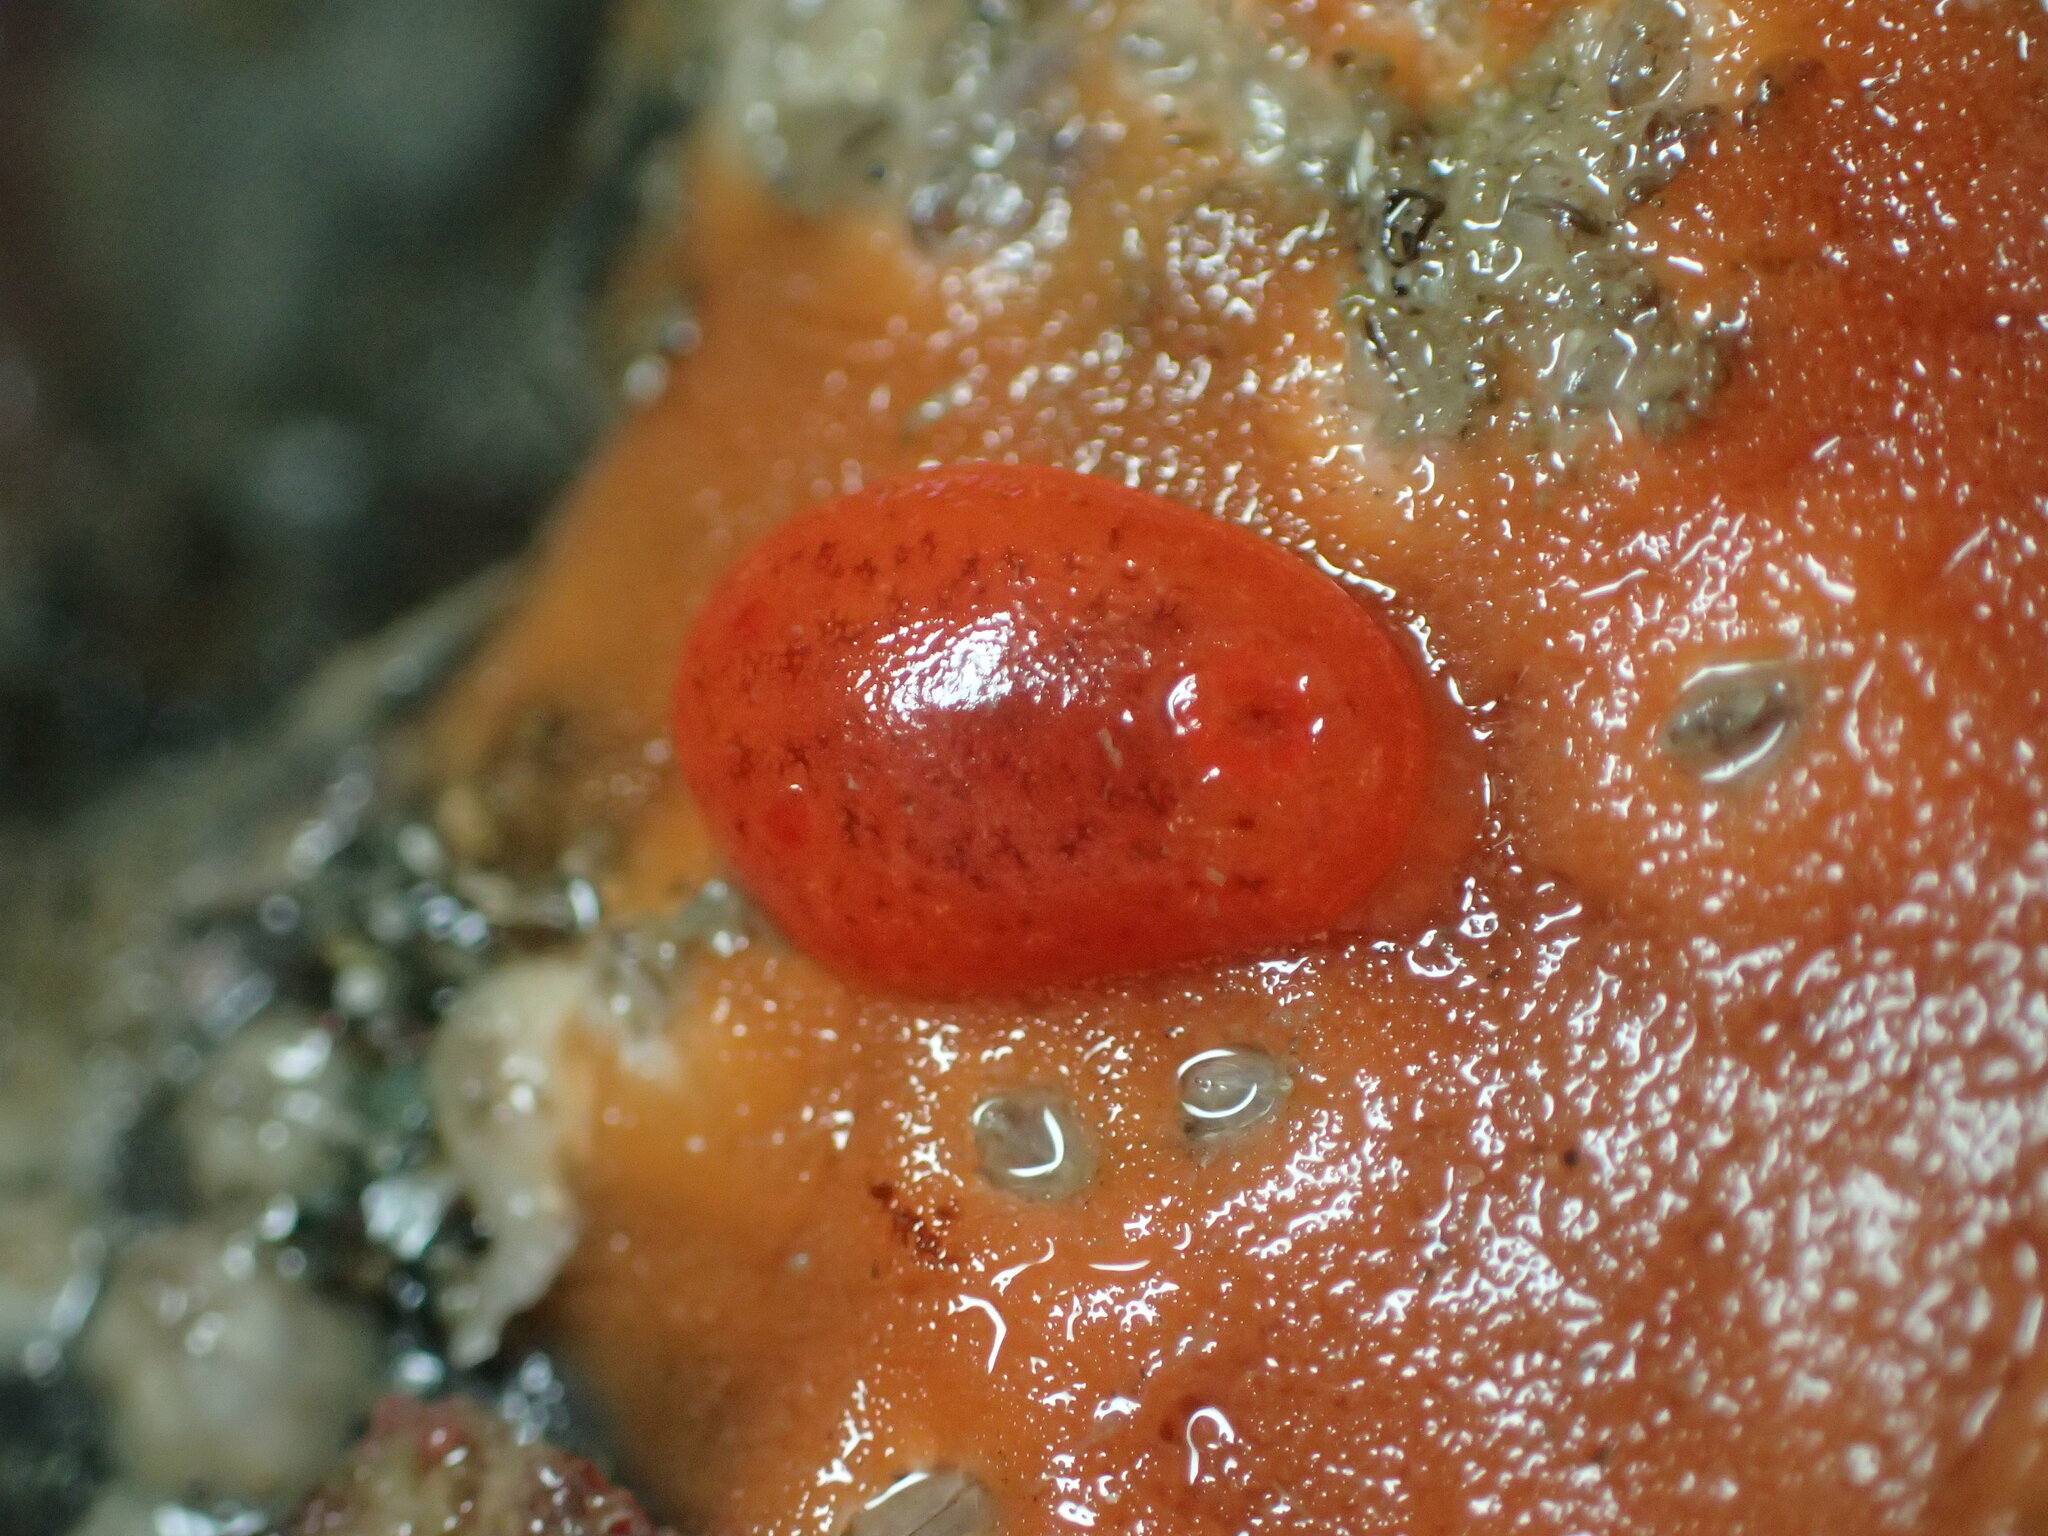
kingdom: Animalia
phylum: Mollusca
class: Gastropoda
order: Nudibranchia
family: Discodorididae
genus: Rostanga
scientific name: Rostanga pulchra
